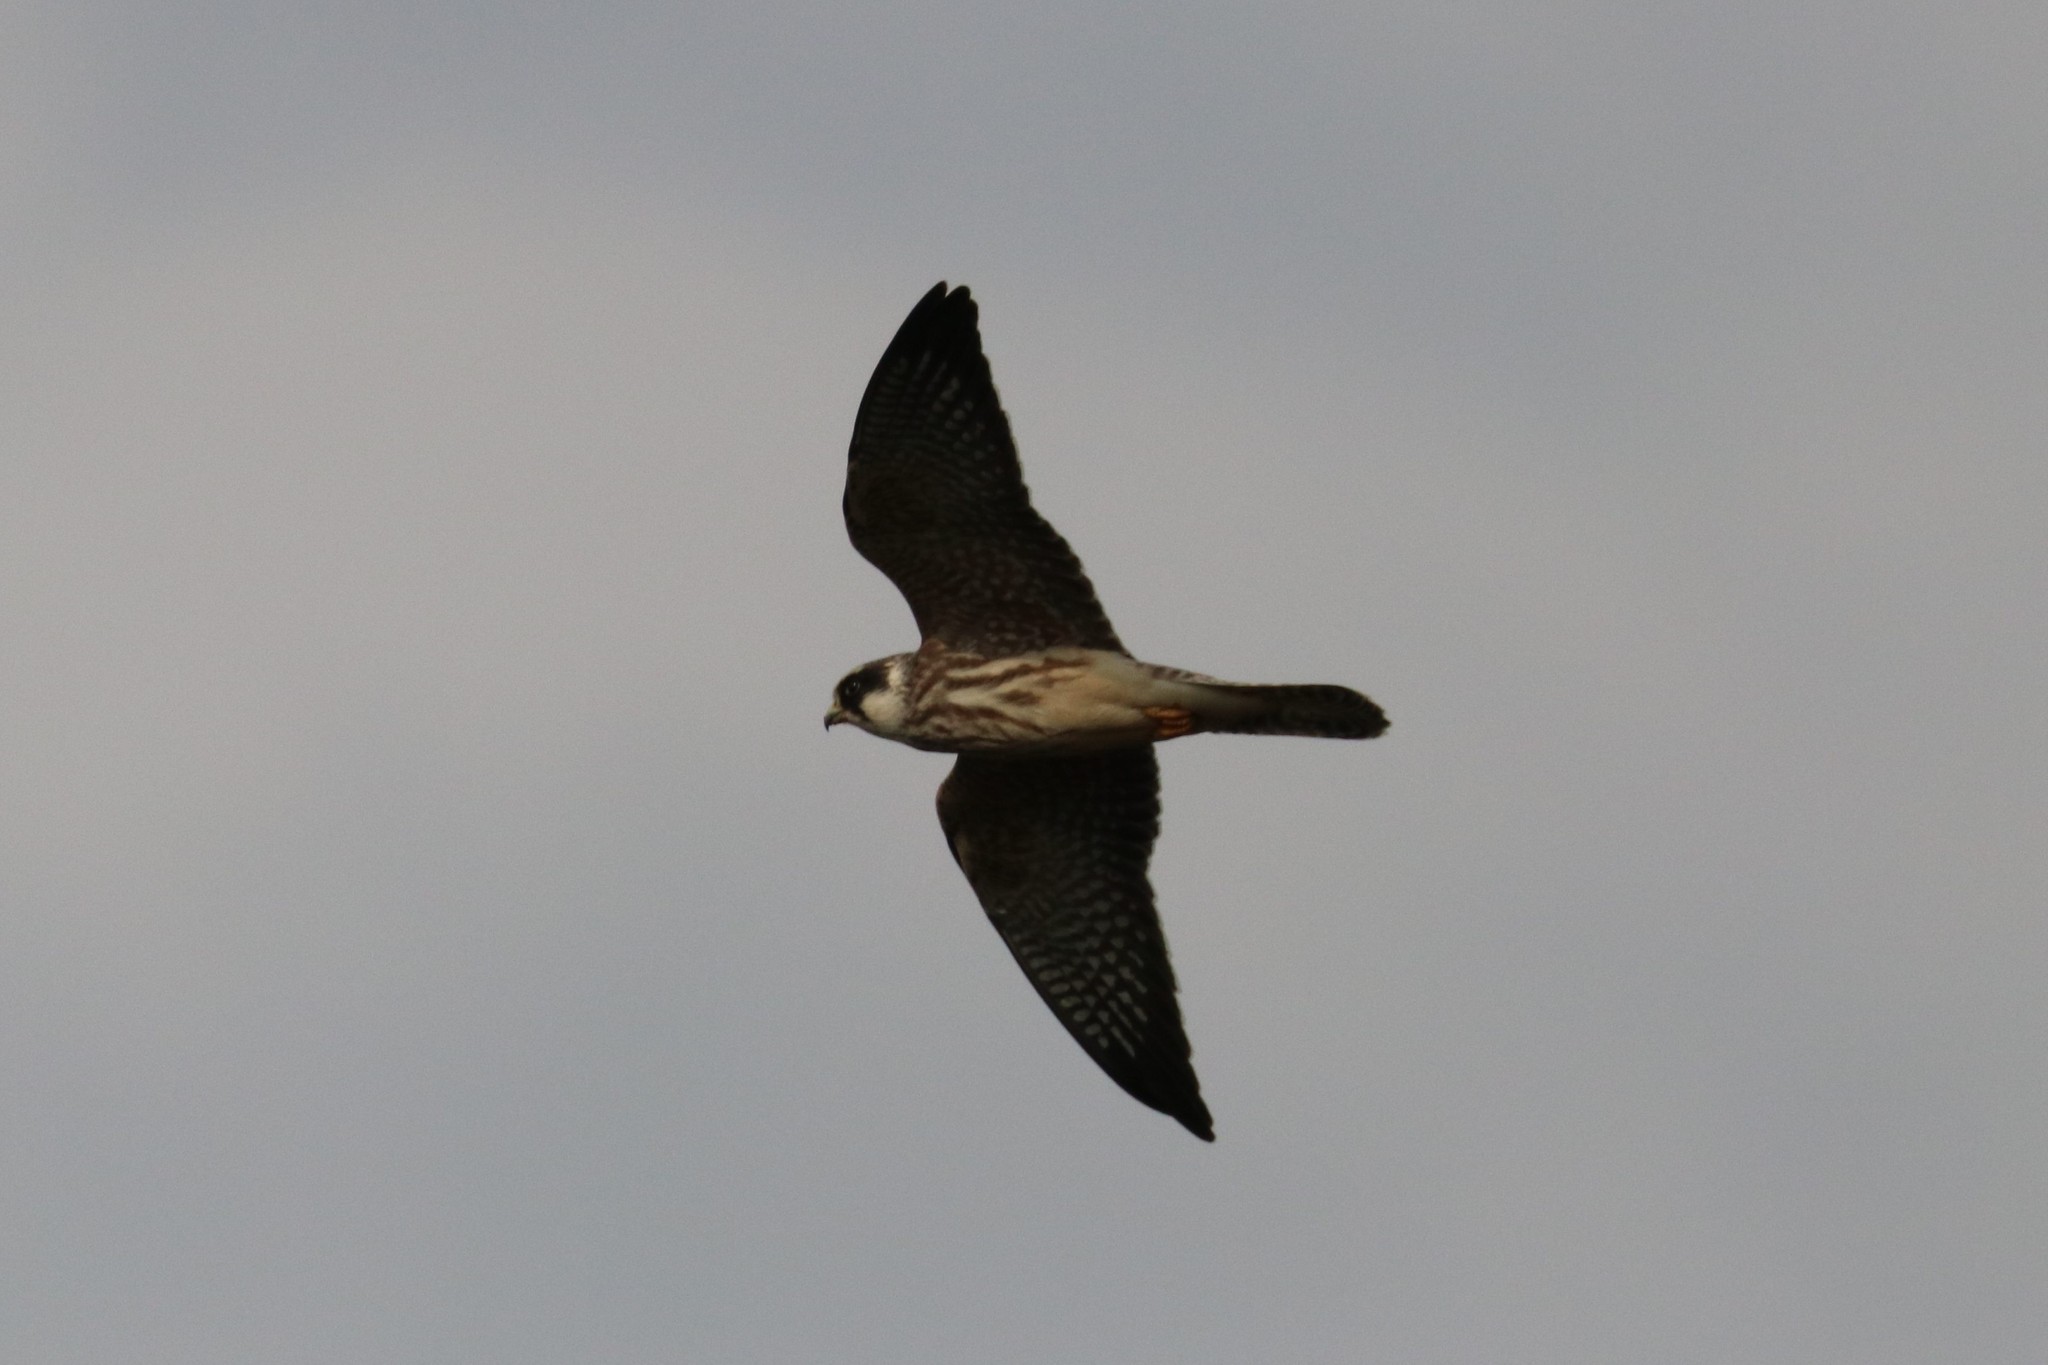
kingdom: Animalia
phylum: Chordata
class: Aves
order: Falconiformes
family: Falconidae
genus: Falco
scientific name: Falco vespertinus
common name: Red-footed falcon
